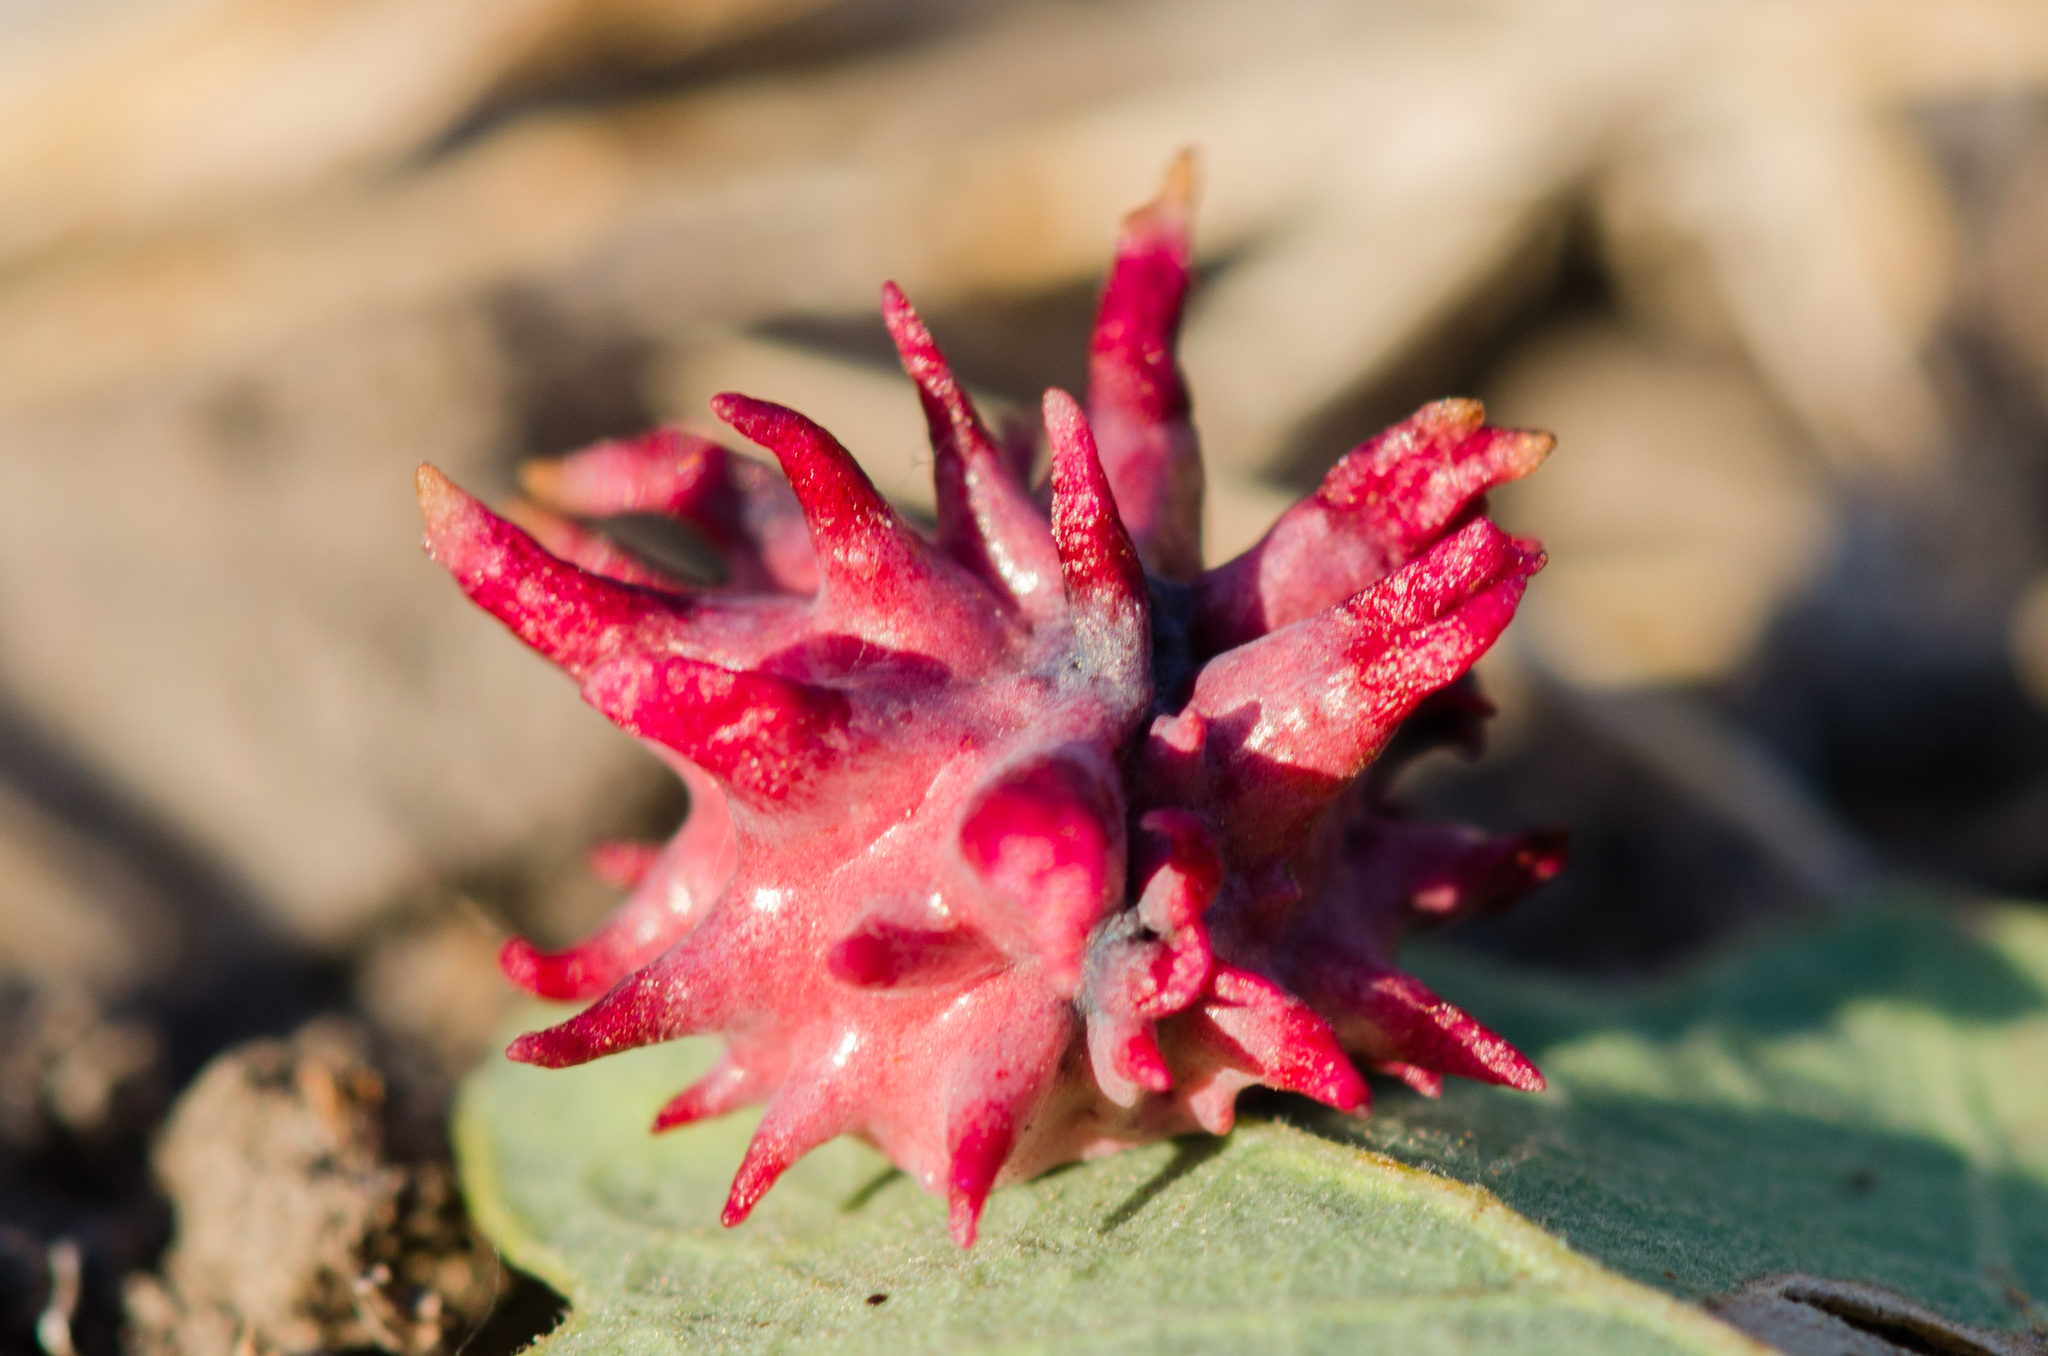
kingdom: Animalia
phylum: Arthropoda
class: Insecta
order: Hymenoptera
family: Cynipidae
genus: Cynips
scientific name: Cynips
